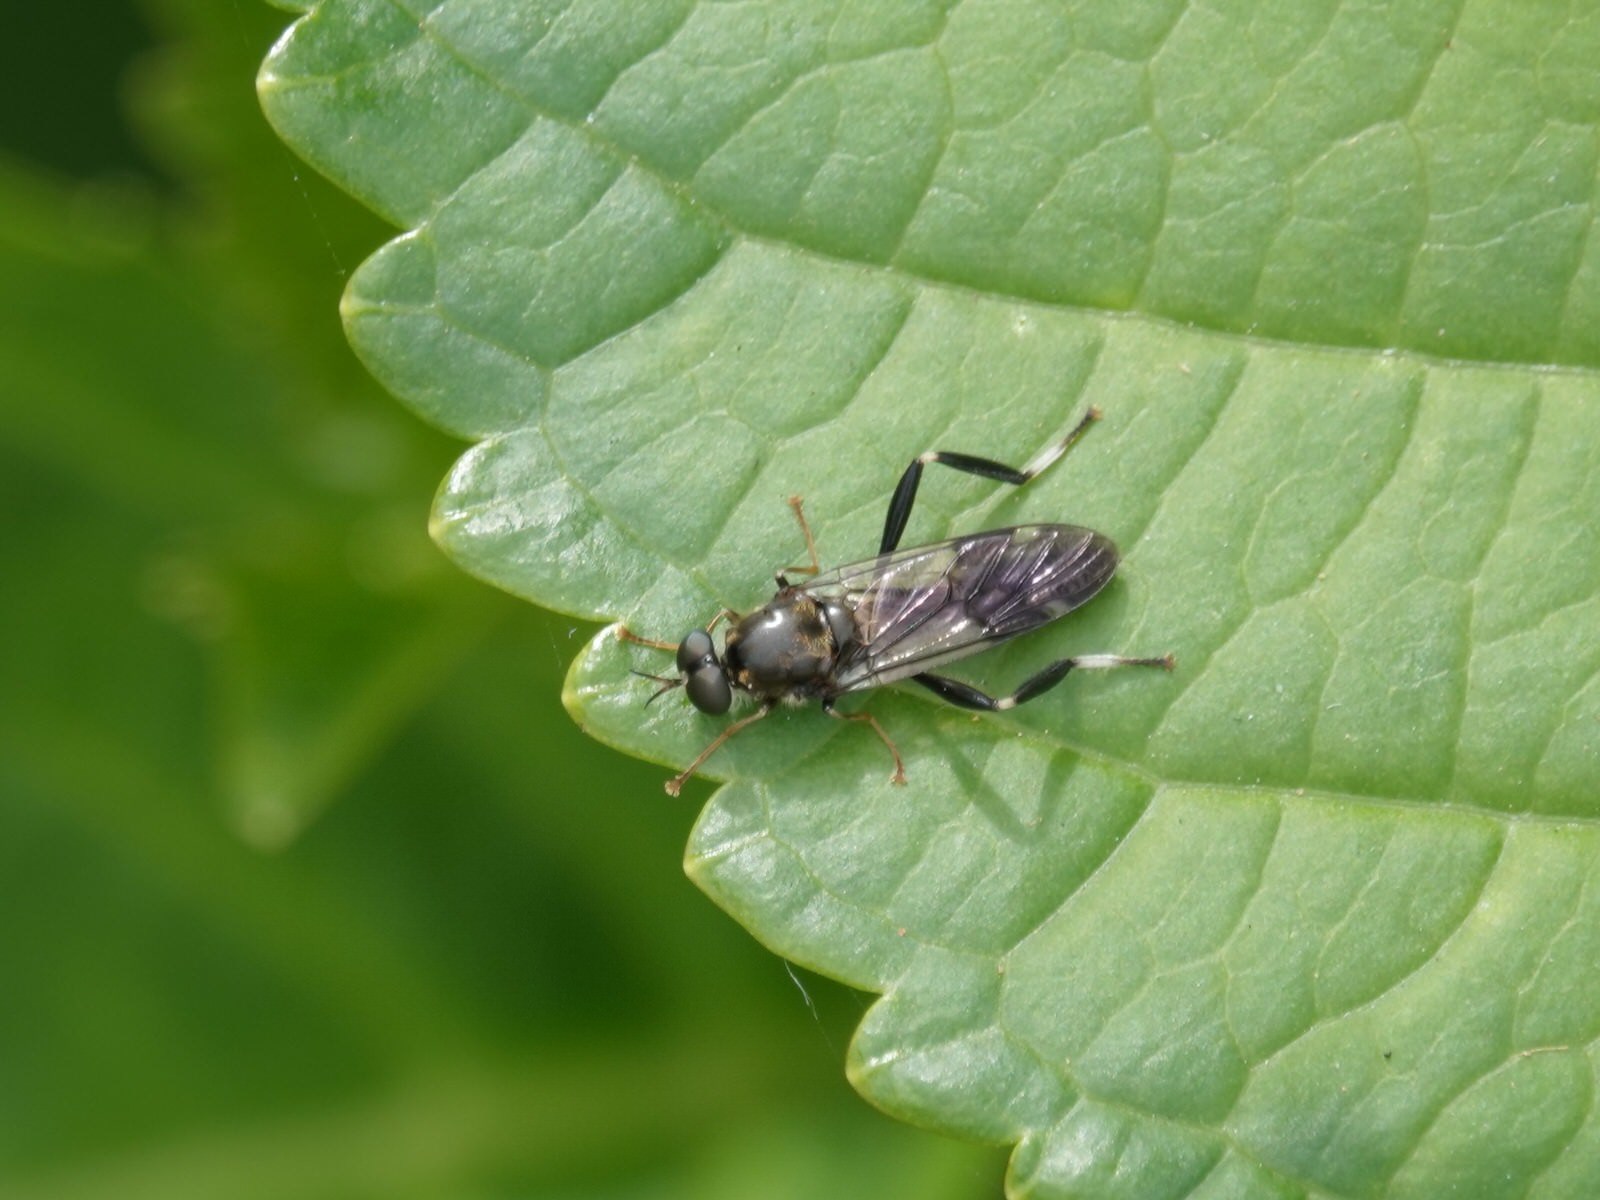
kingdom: Animalia
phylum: Arthropoda
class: Insecta
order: Diptera
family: Stratiomyidae
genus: Exaireta
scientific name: Exaireta spinigera
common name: Blue soldier fly
